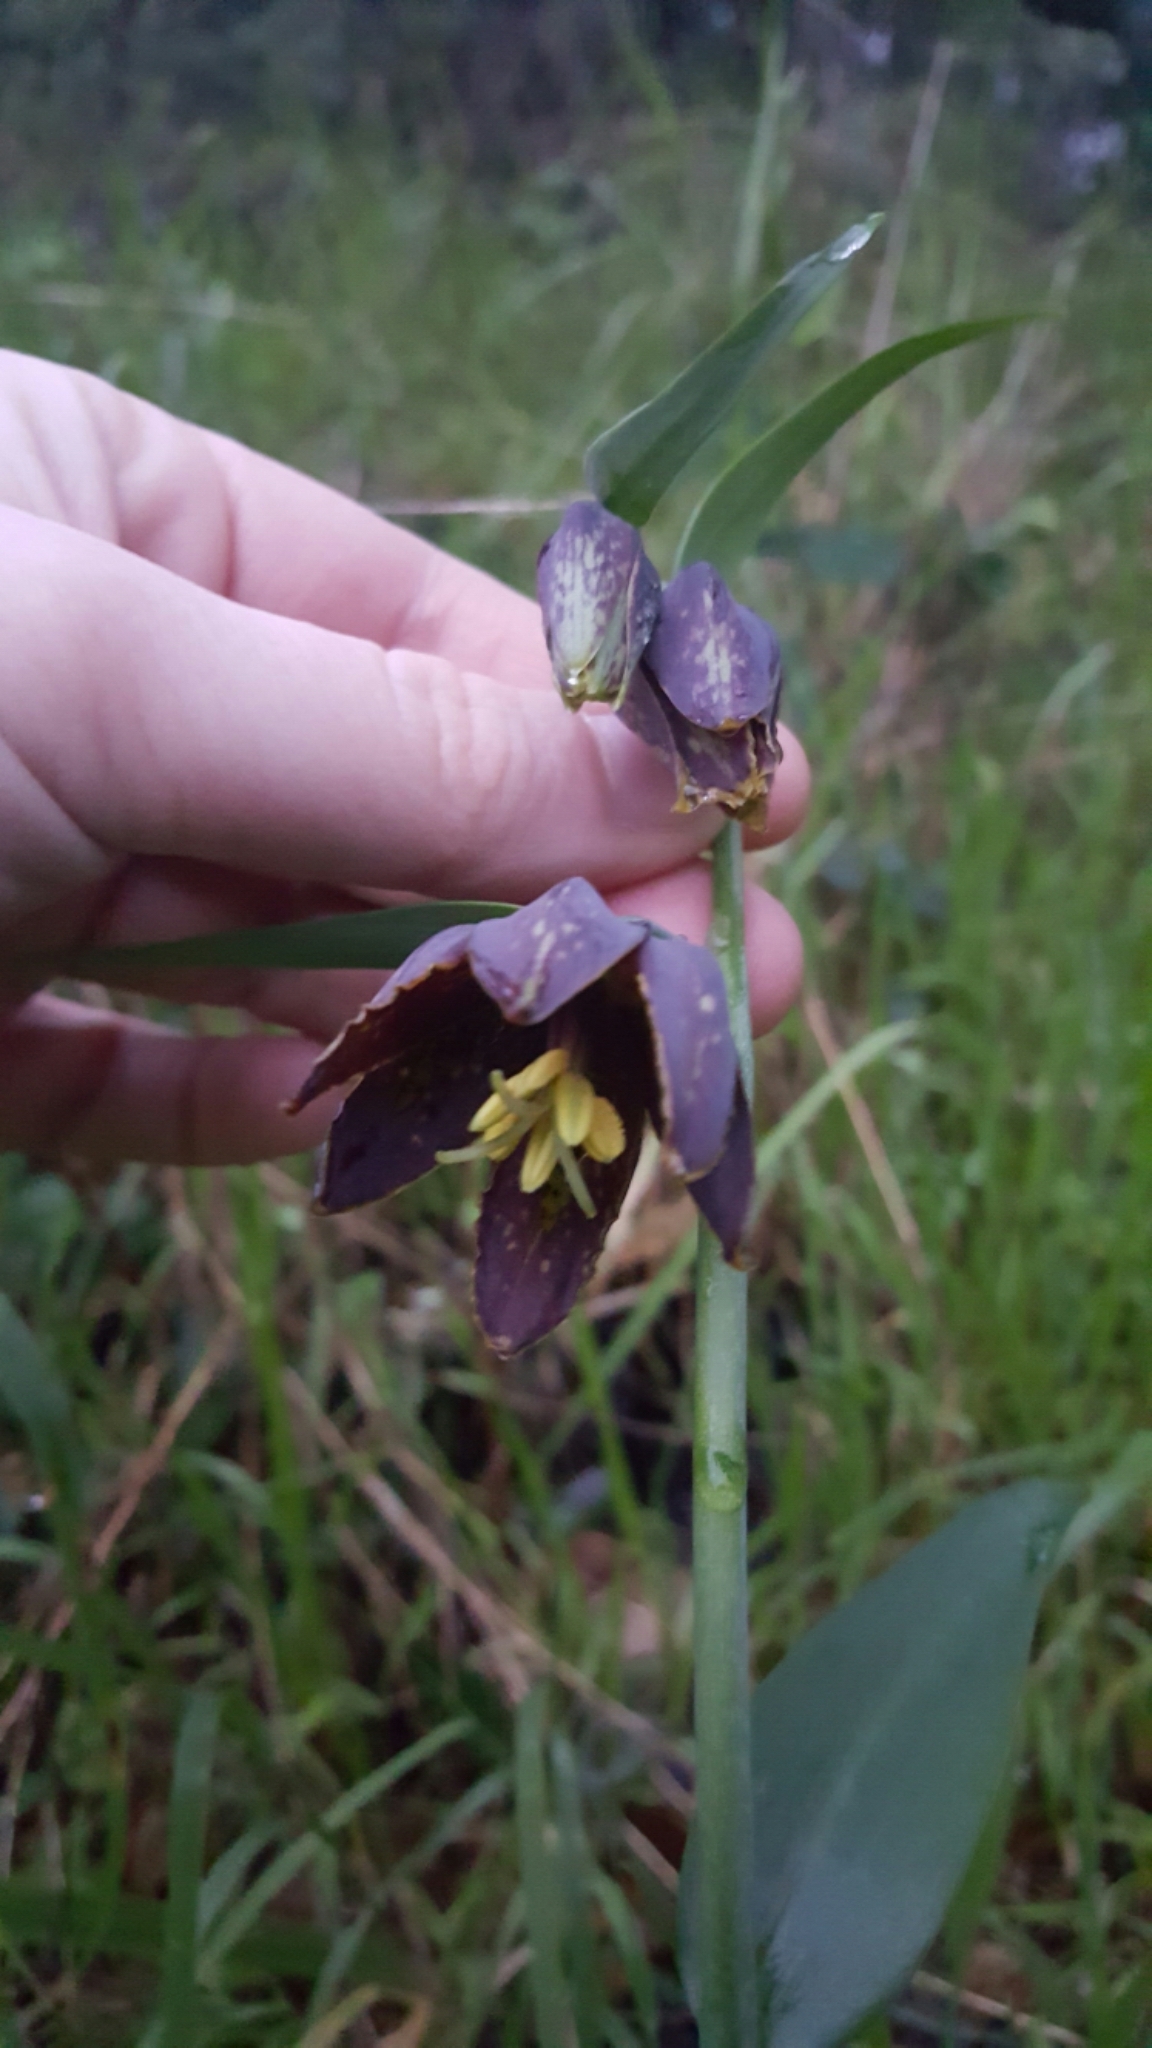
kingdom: Plantae
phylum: Tracheophyta
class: Liliopsida
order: Liliales
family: Liliaceae
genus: Fritillaria
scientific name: Fritillaria affinis
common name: Ojai fritillary
